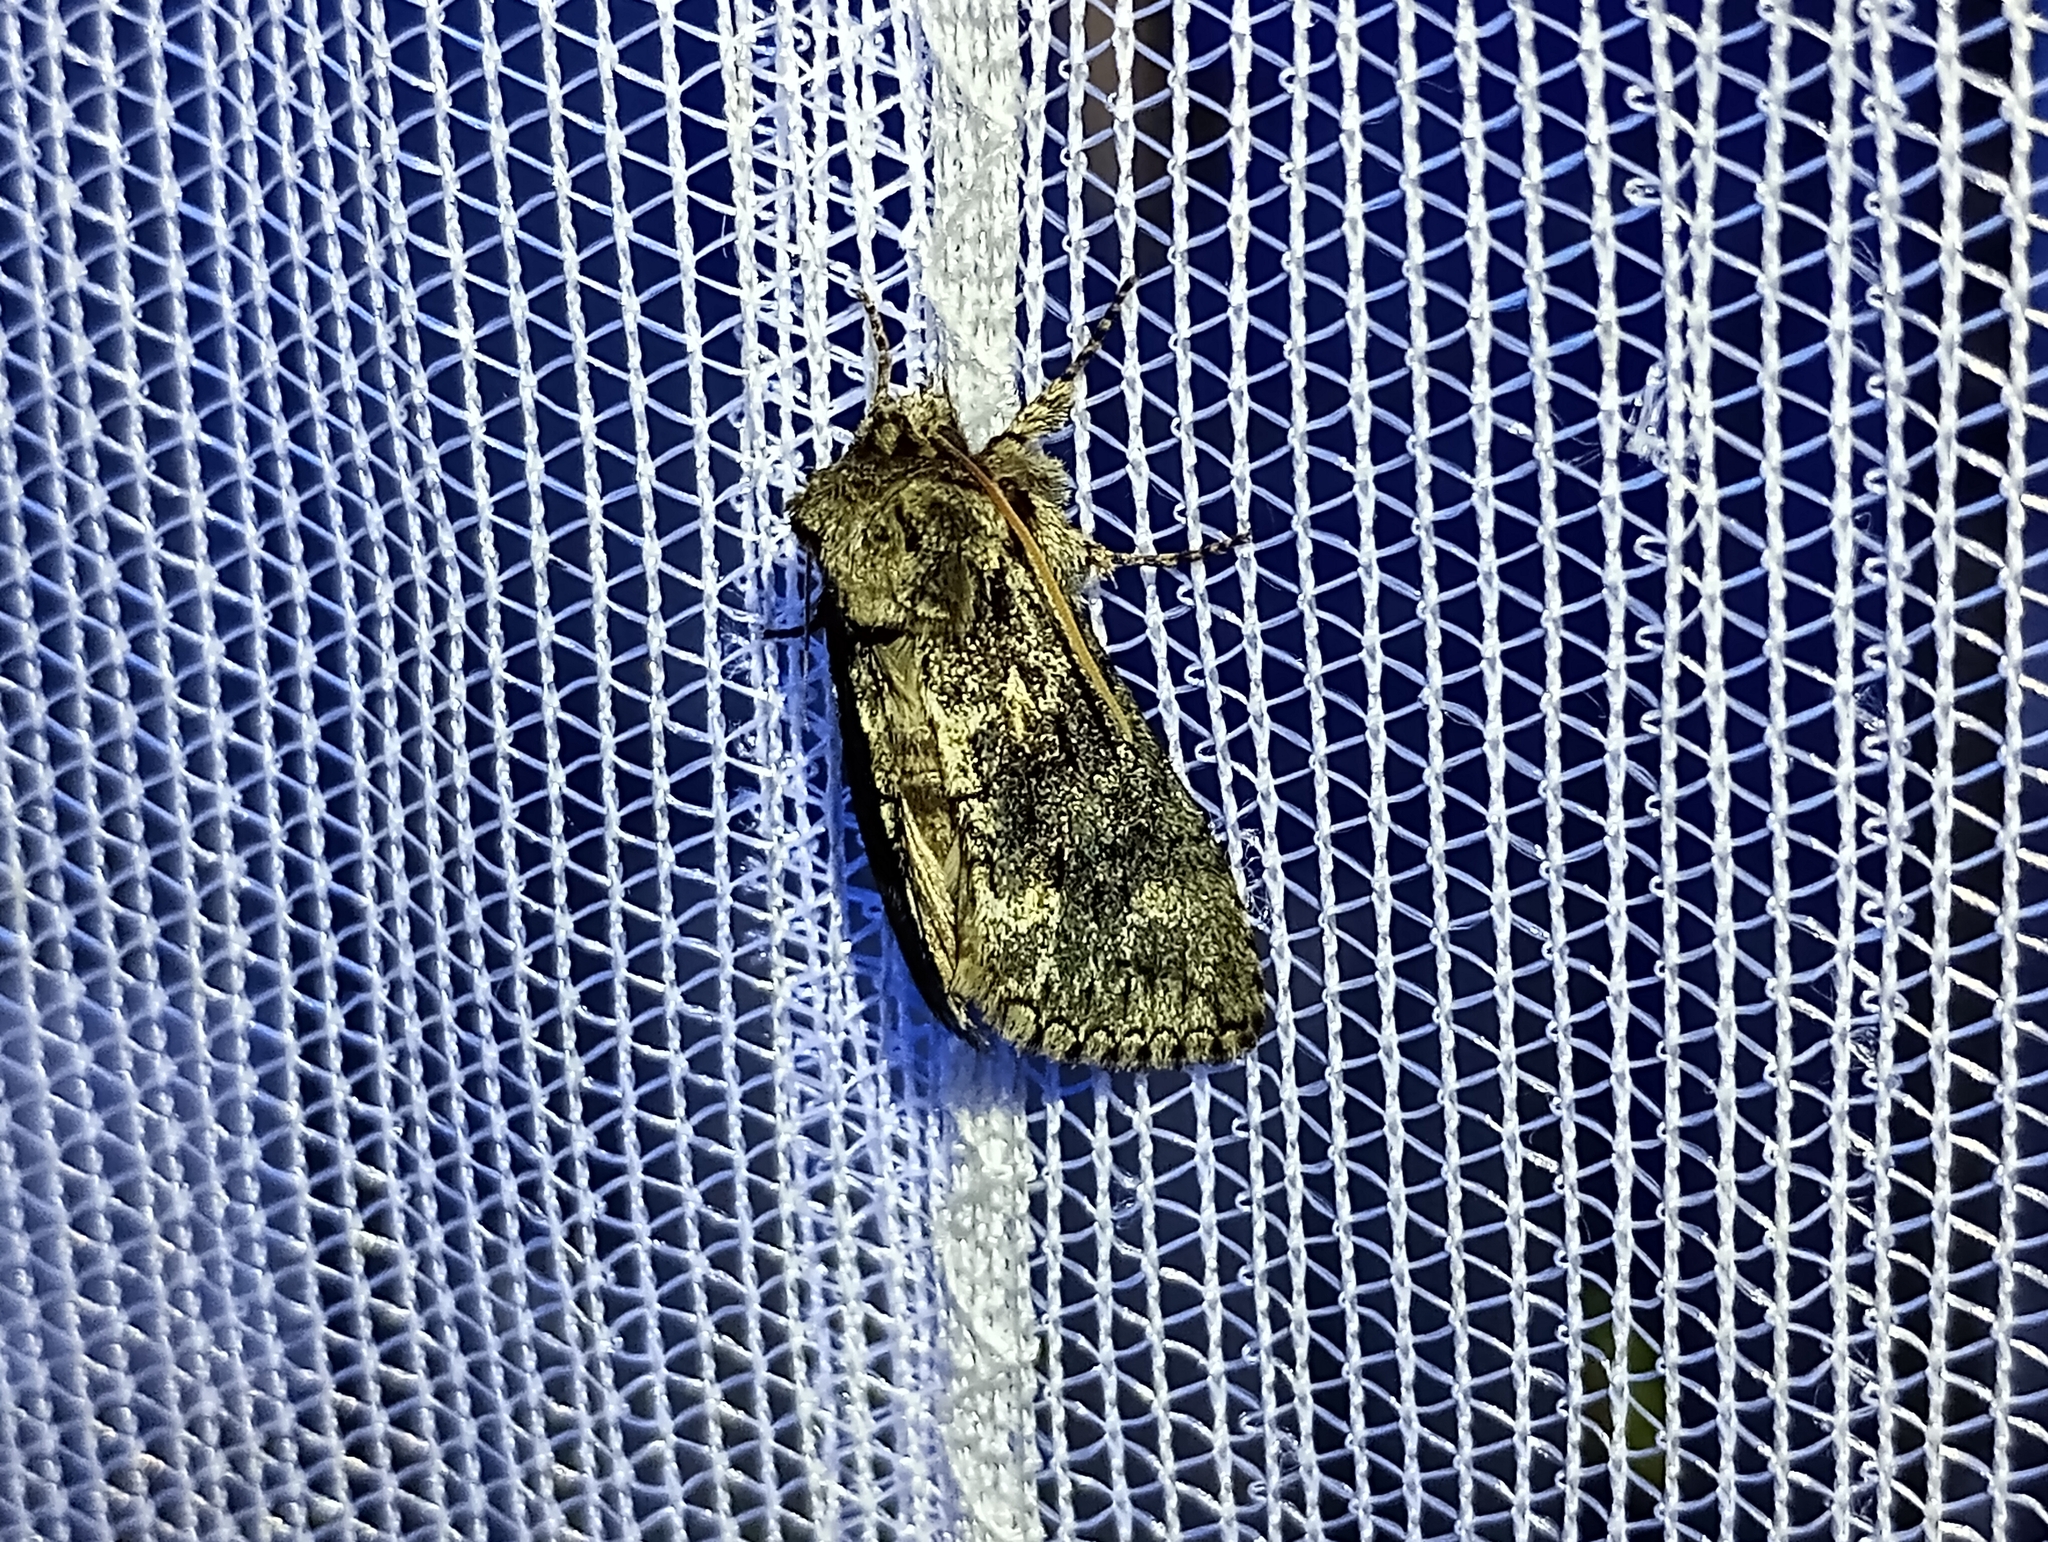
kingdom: Animalia
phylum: Arthropoda
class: Insecta
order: Lepidoptera
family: Drepanidae
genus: Polyploca
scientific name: Polyploca ridens
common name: Frosted green
